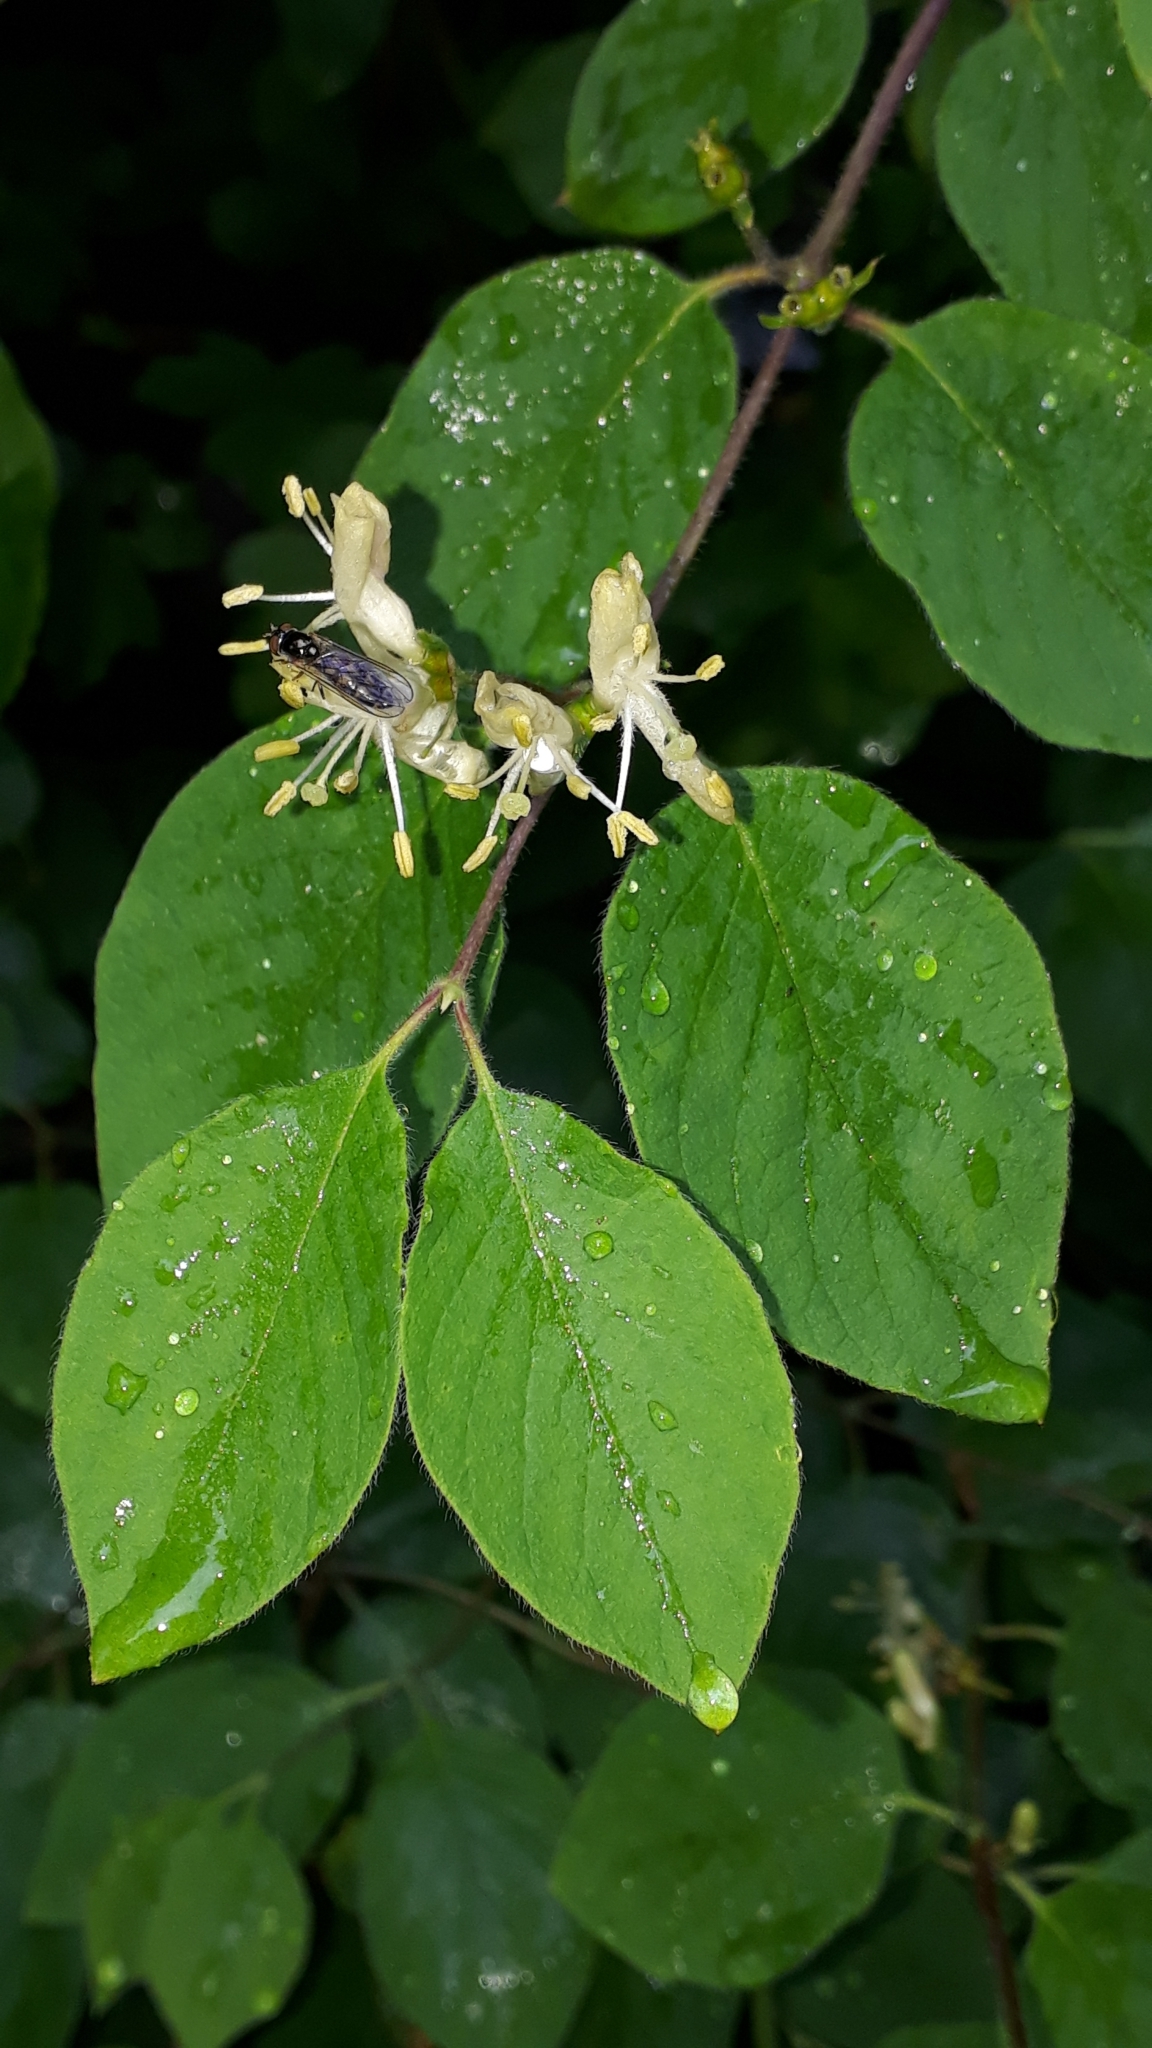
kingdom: Plantae
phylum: Tracheophyta
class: Magnoliopsida
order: Dipsacales
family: Caprifoliaceae
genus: Lonicera
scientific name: Lonicera xylosteum
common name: Fly honeysuckle
